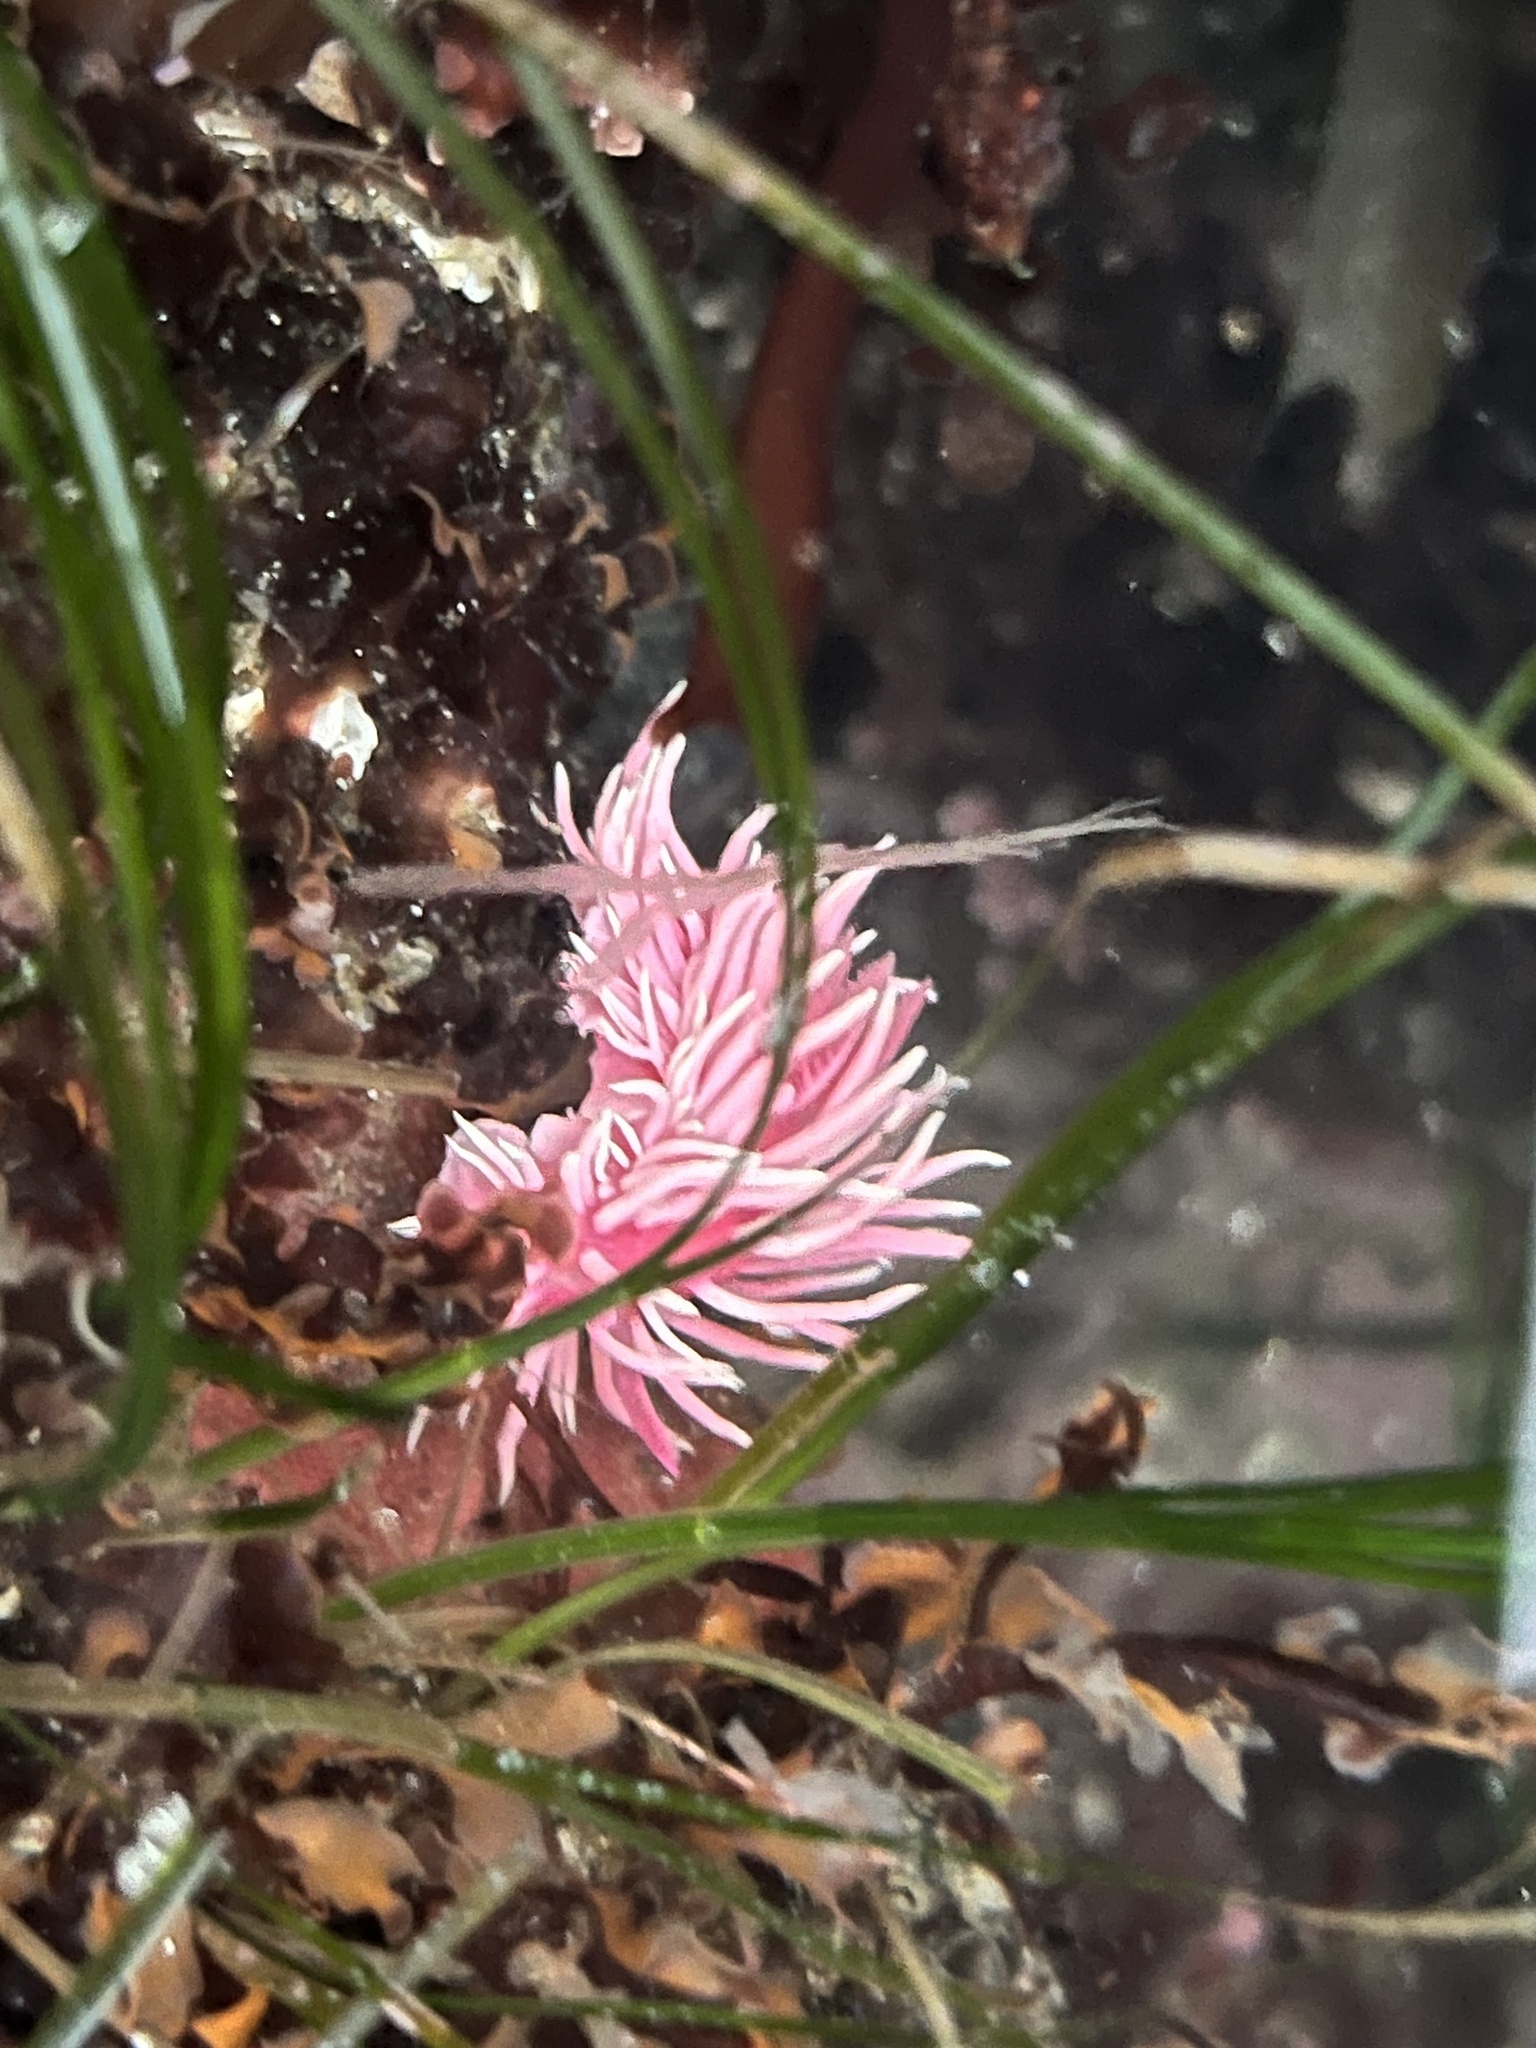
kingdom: Animalia
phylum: Mollusca
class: Gastropoda
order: Nudibranchia
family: Goniodorididae
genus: Okenia
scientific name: Okenia
